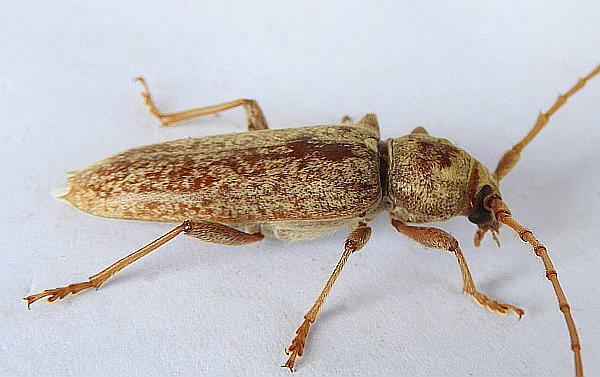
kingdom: Animalia
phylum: Arthropoda
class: Insecta
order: Coleoptera
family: Cerambycidae
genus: Enaphalodes
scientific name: Enaphalodes rufulus
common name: Red oak borer
